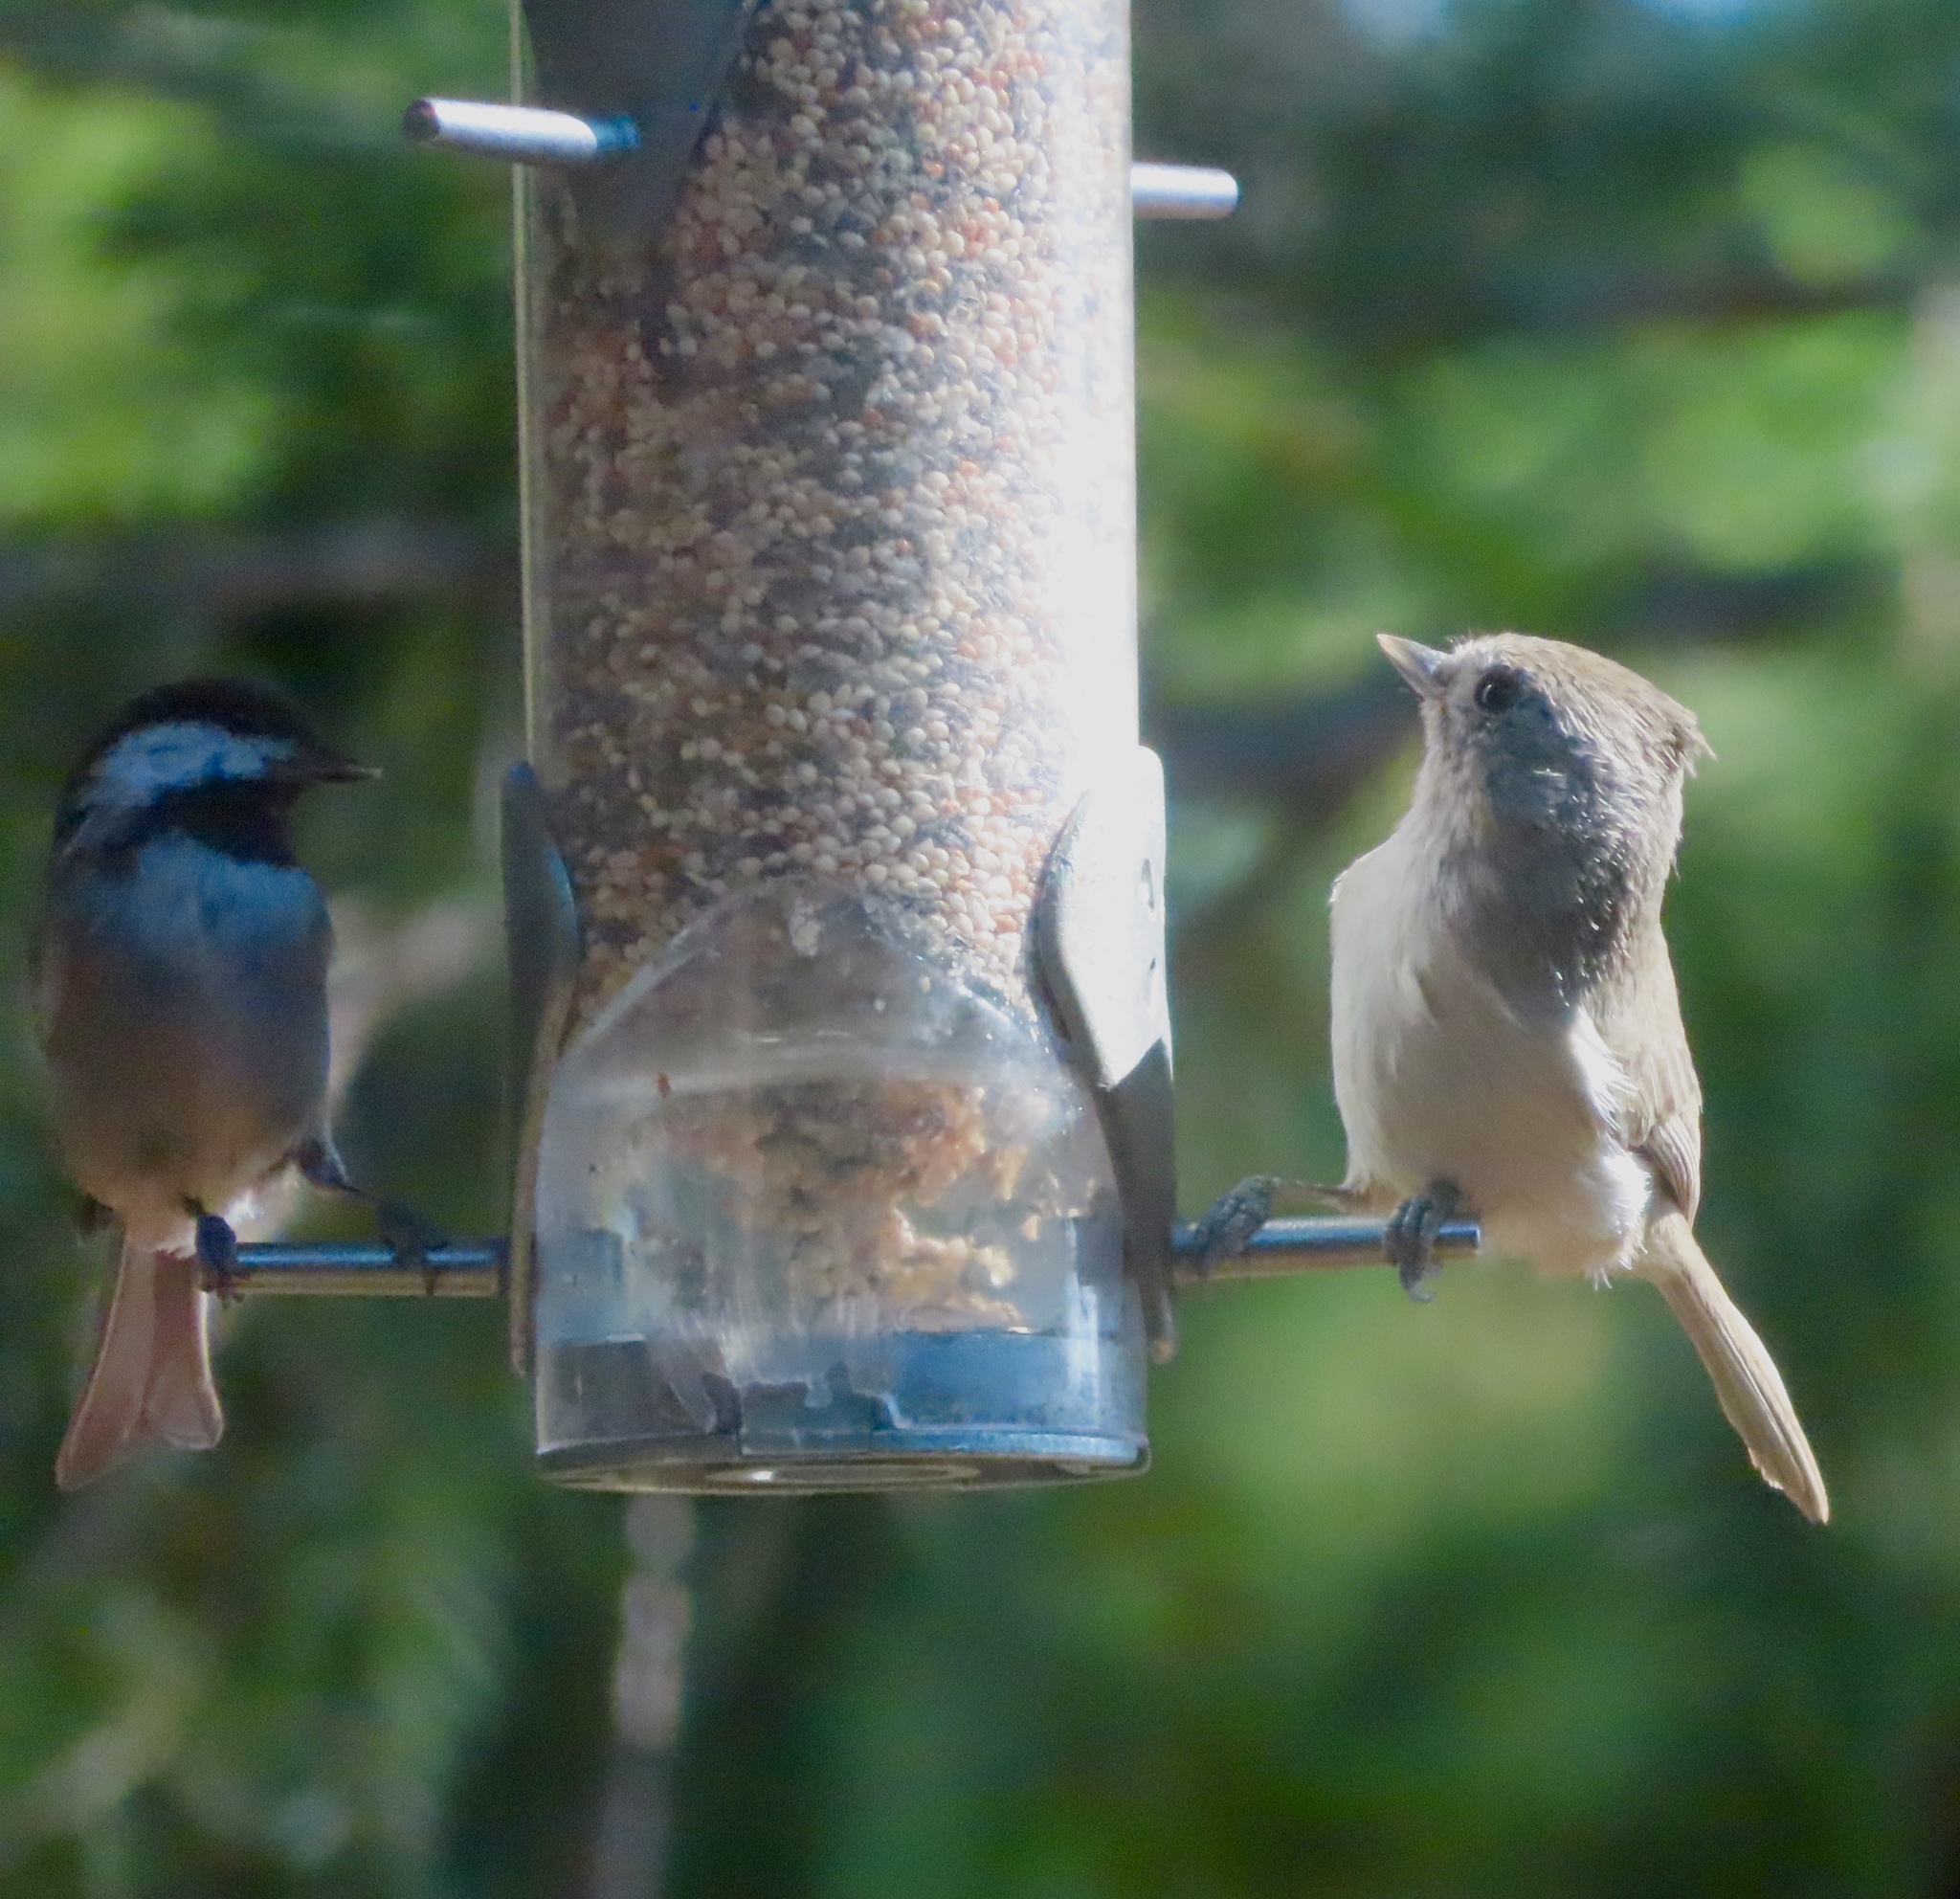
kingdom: Animalia
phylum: Chordata
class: Aves
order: Passeriformes
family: Paridae
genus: Baeolophus
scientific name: Baeolophus inornatus
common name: Oak titmouse
